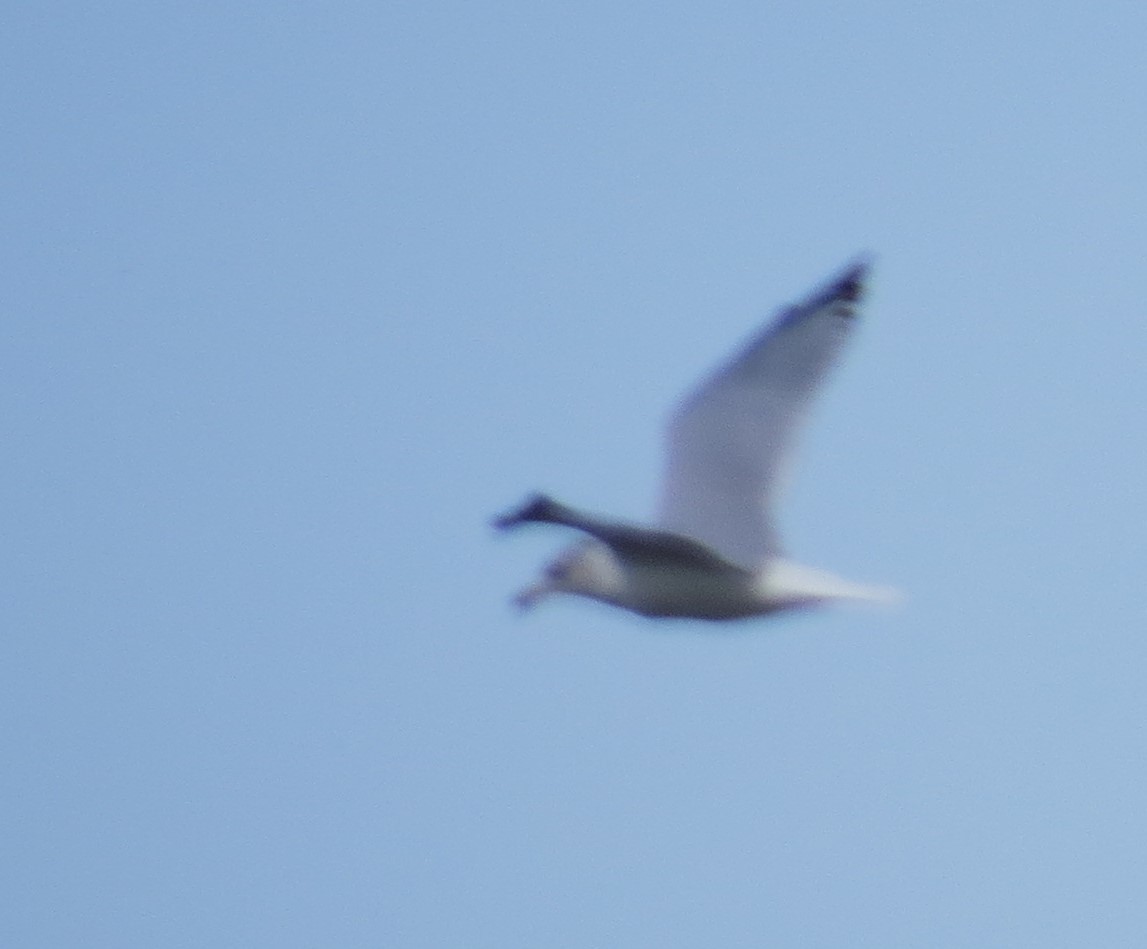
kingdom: Animalia
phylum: Chordata
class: Aves
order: Charadriiformes
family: Laridae
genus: Larus
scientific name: Larus delawarensis
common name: Ring-billed gull
